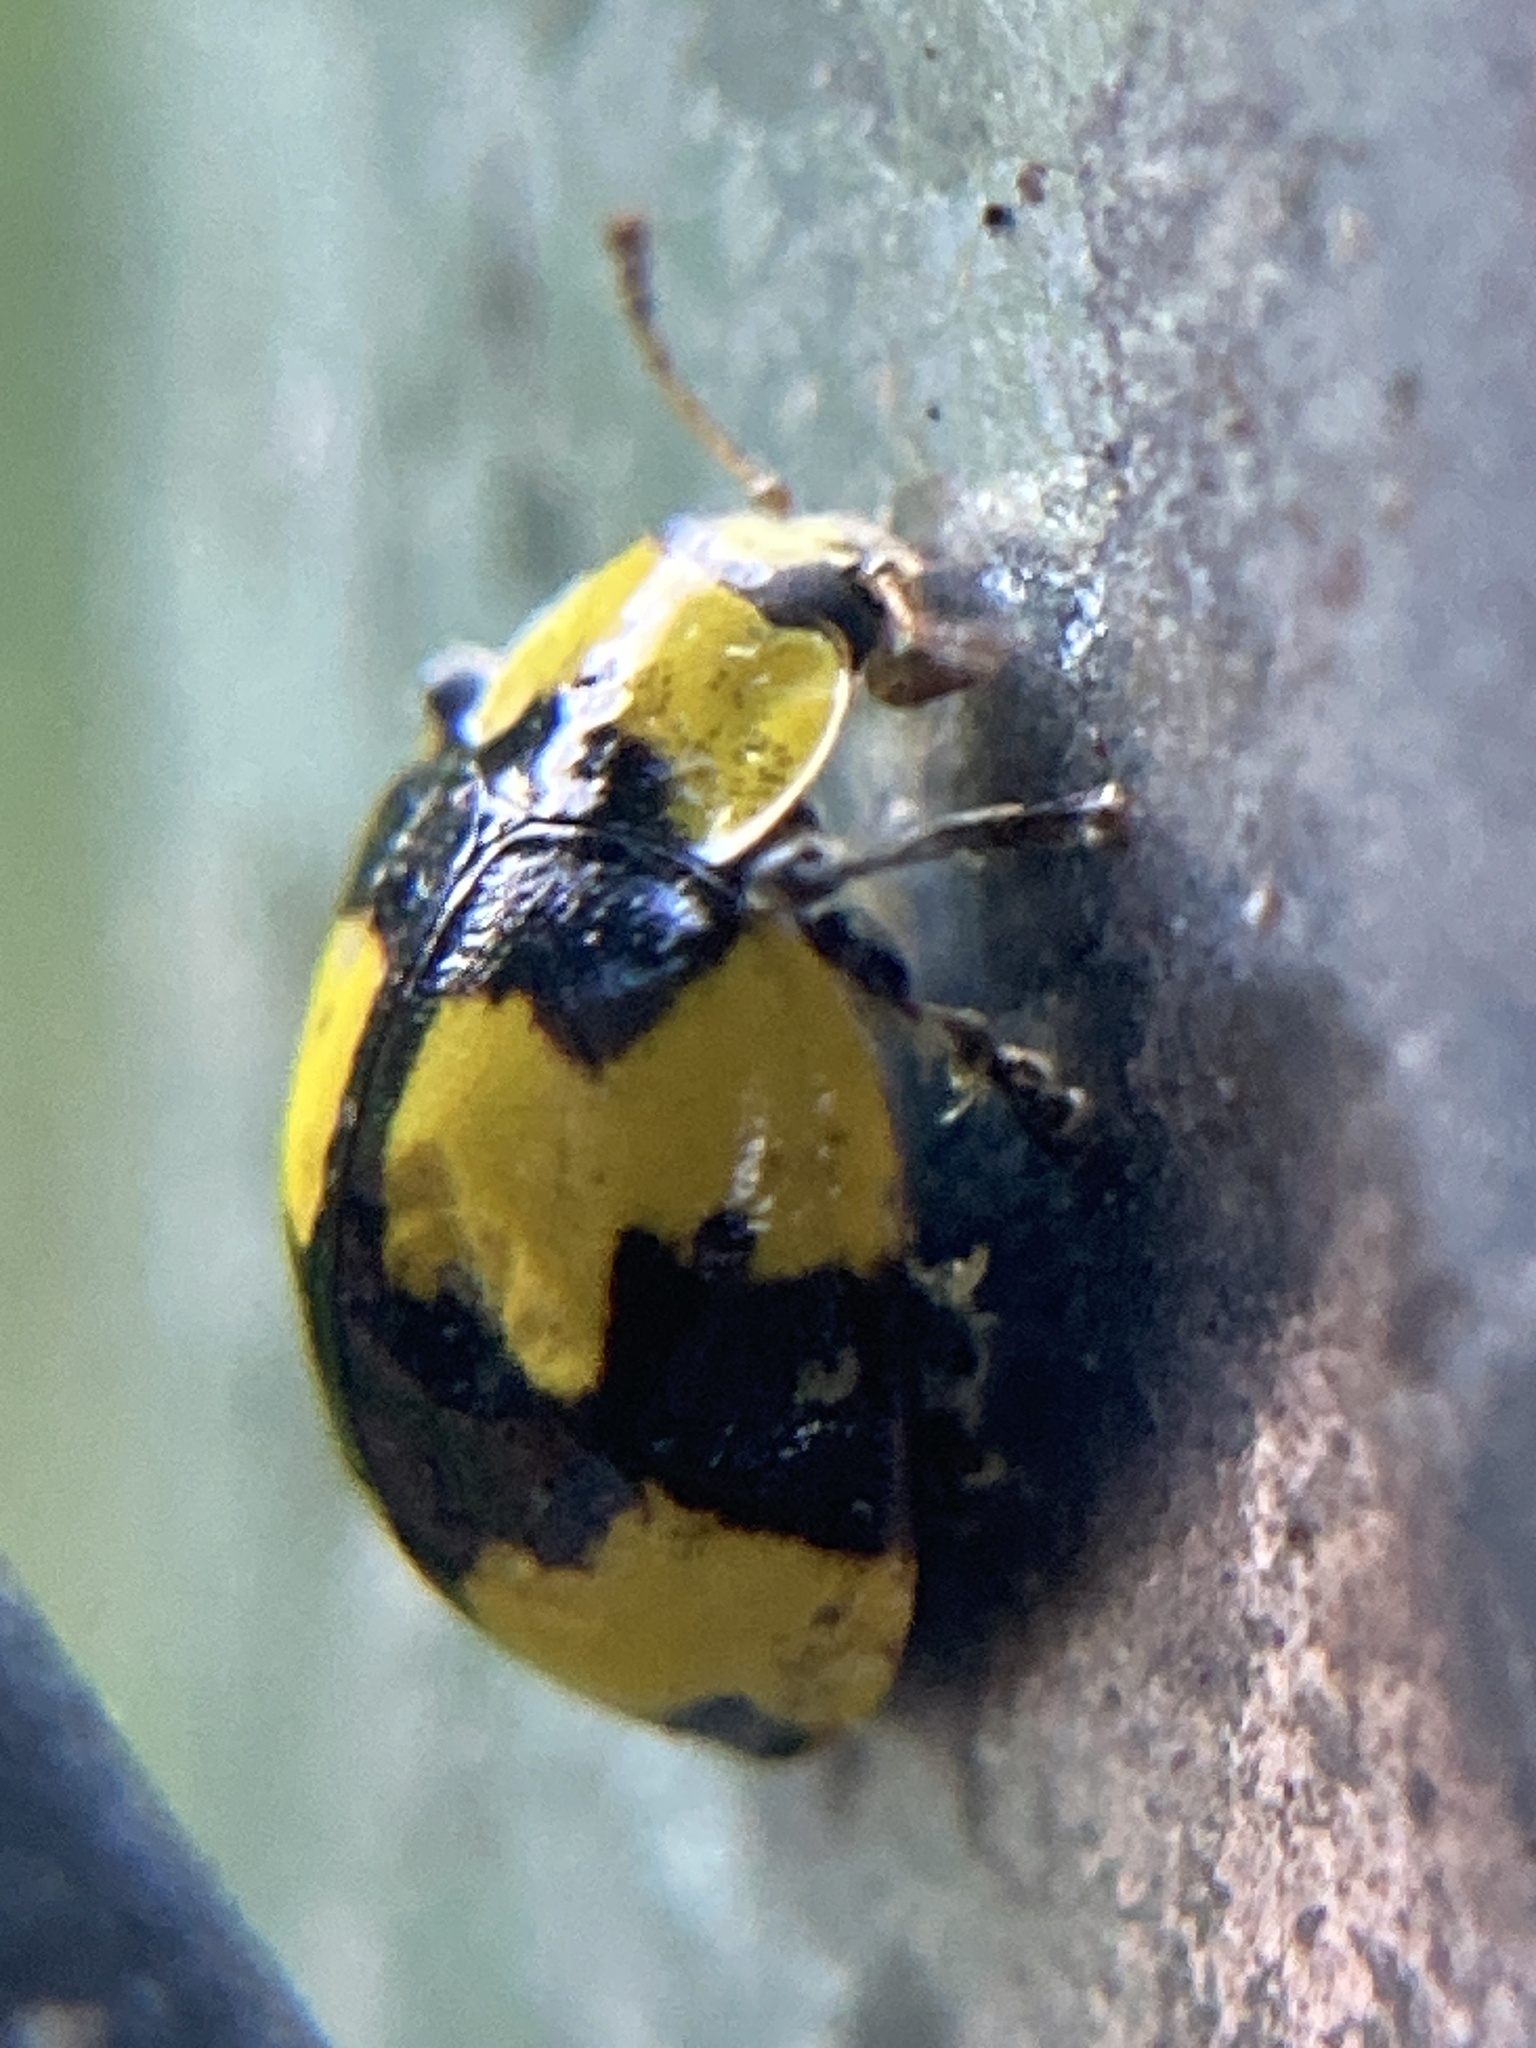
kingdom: Animalia
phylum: Arthropoda
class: Insecta
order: Coleoptera
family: Coccinellidae
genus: Illeis
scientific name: Illeis galbula
